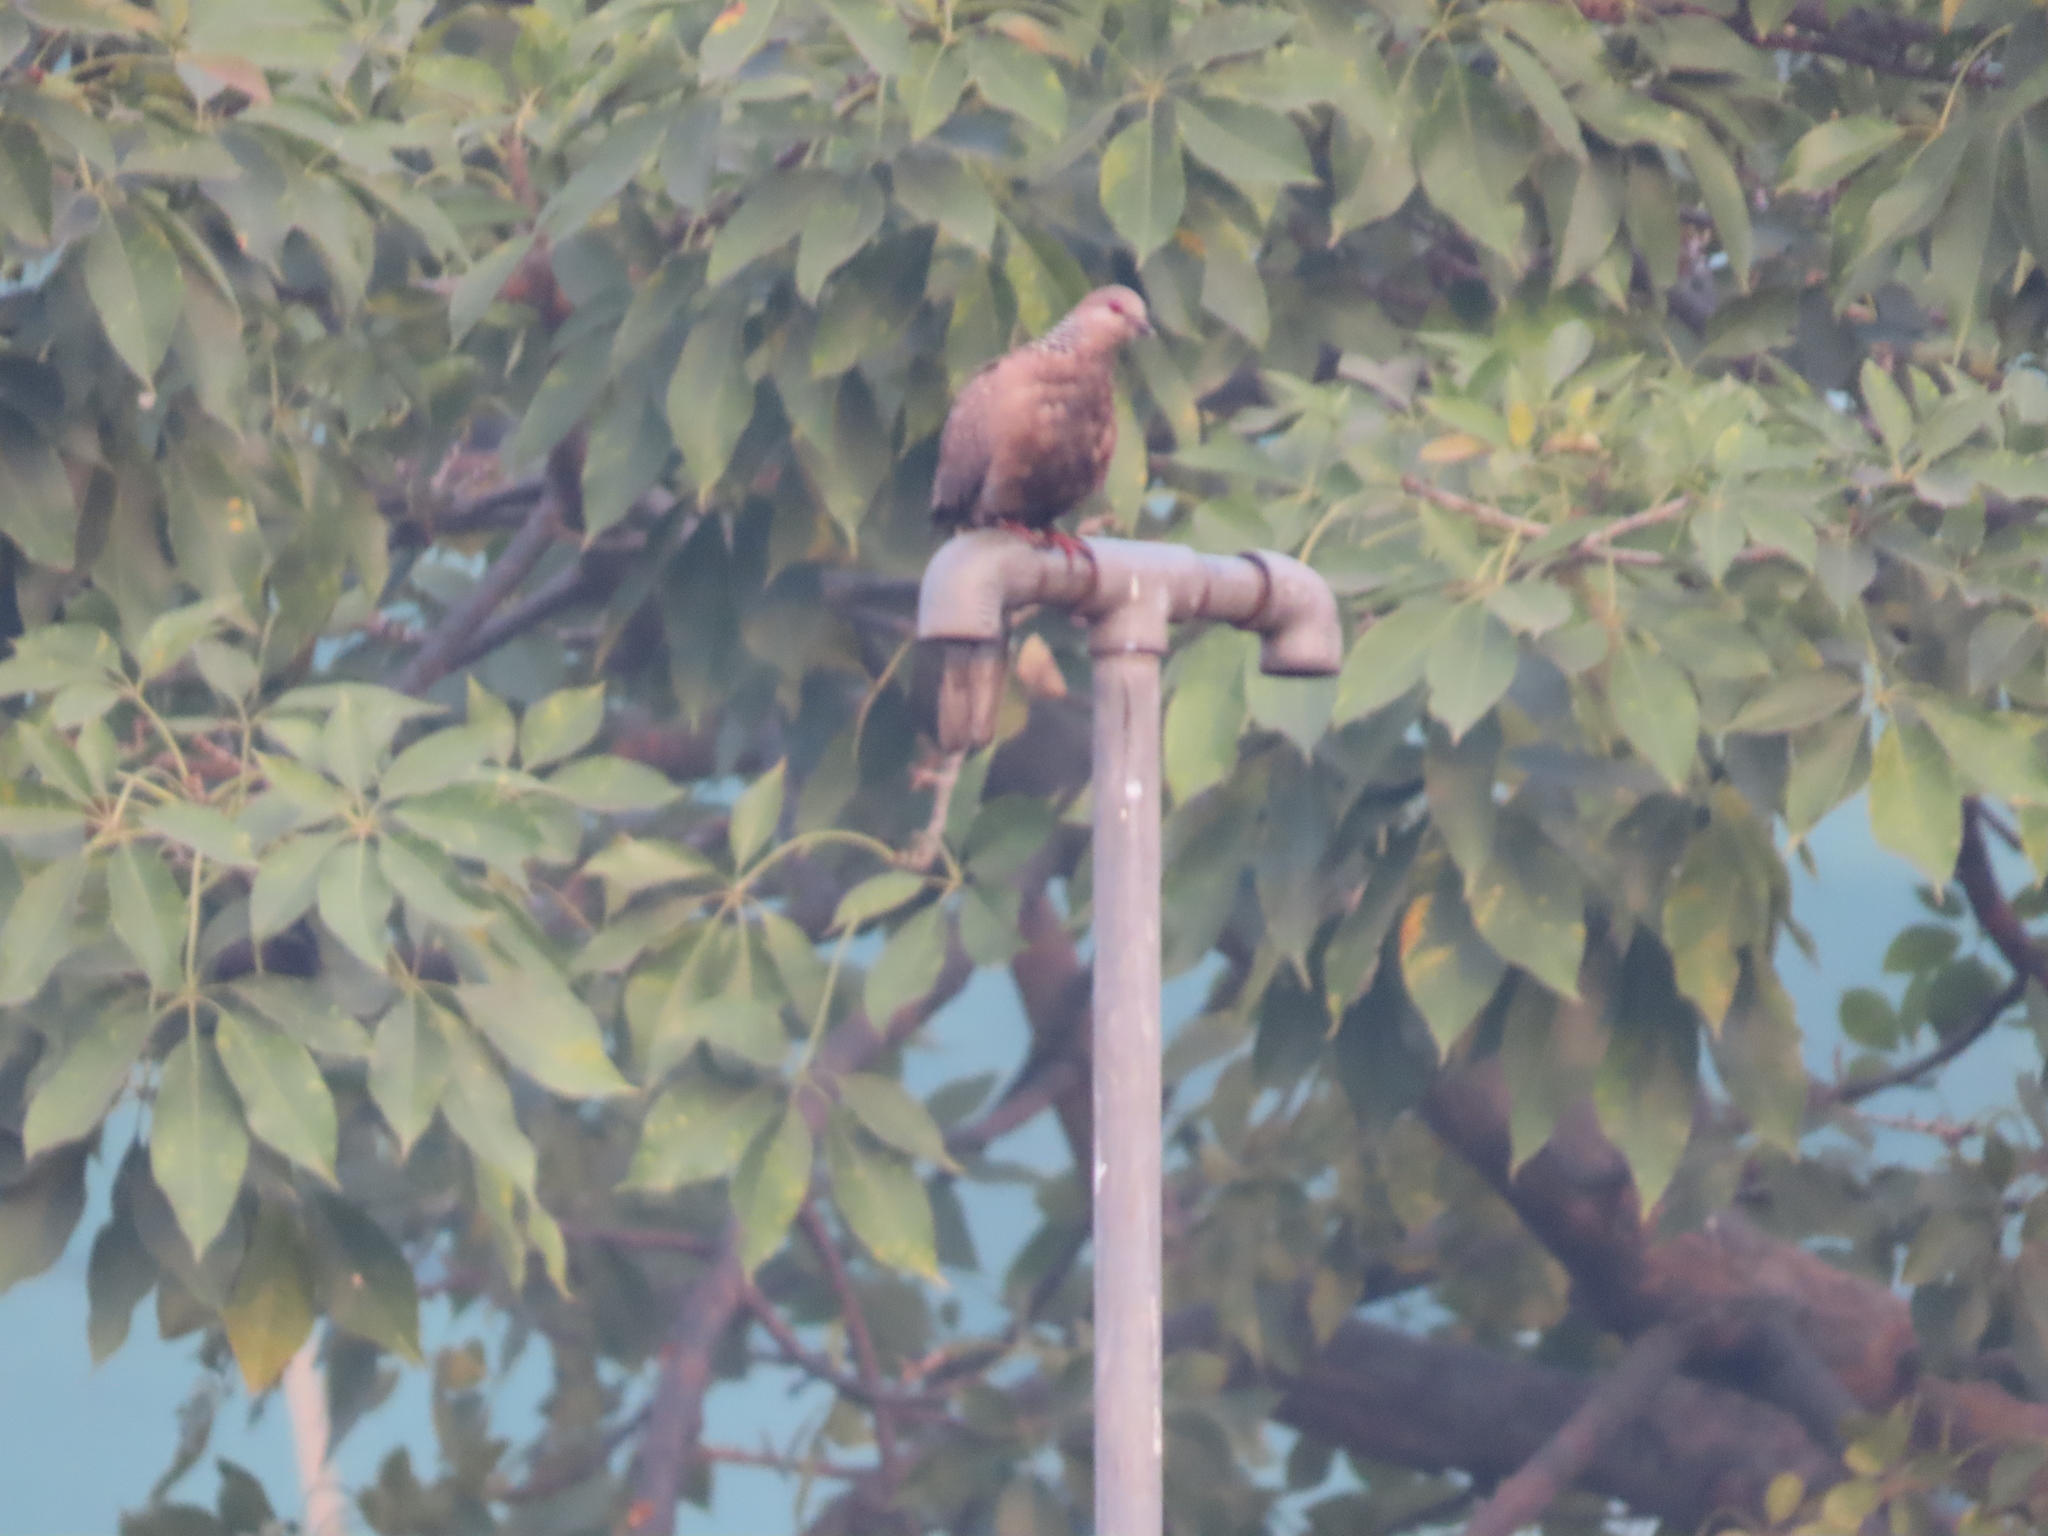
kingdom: Animalia
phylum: Chordata
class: Aves
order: Columbiformes
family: Columbidae
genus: Spilopelia
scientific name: Spilopelia chinensis
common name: Spotted dove
